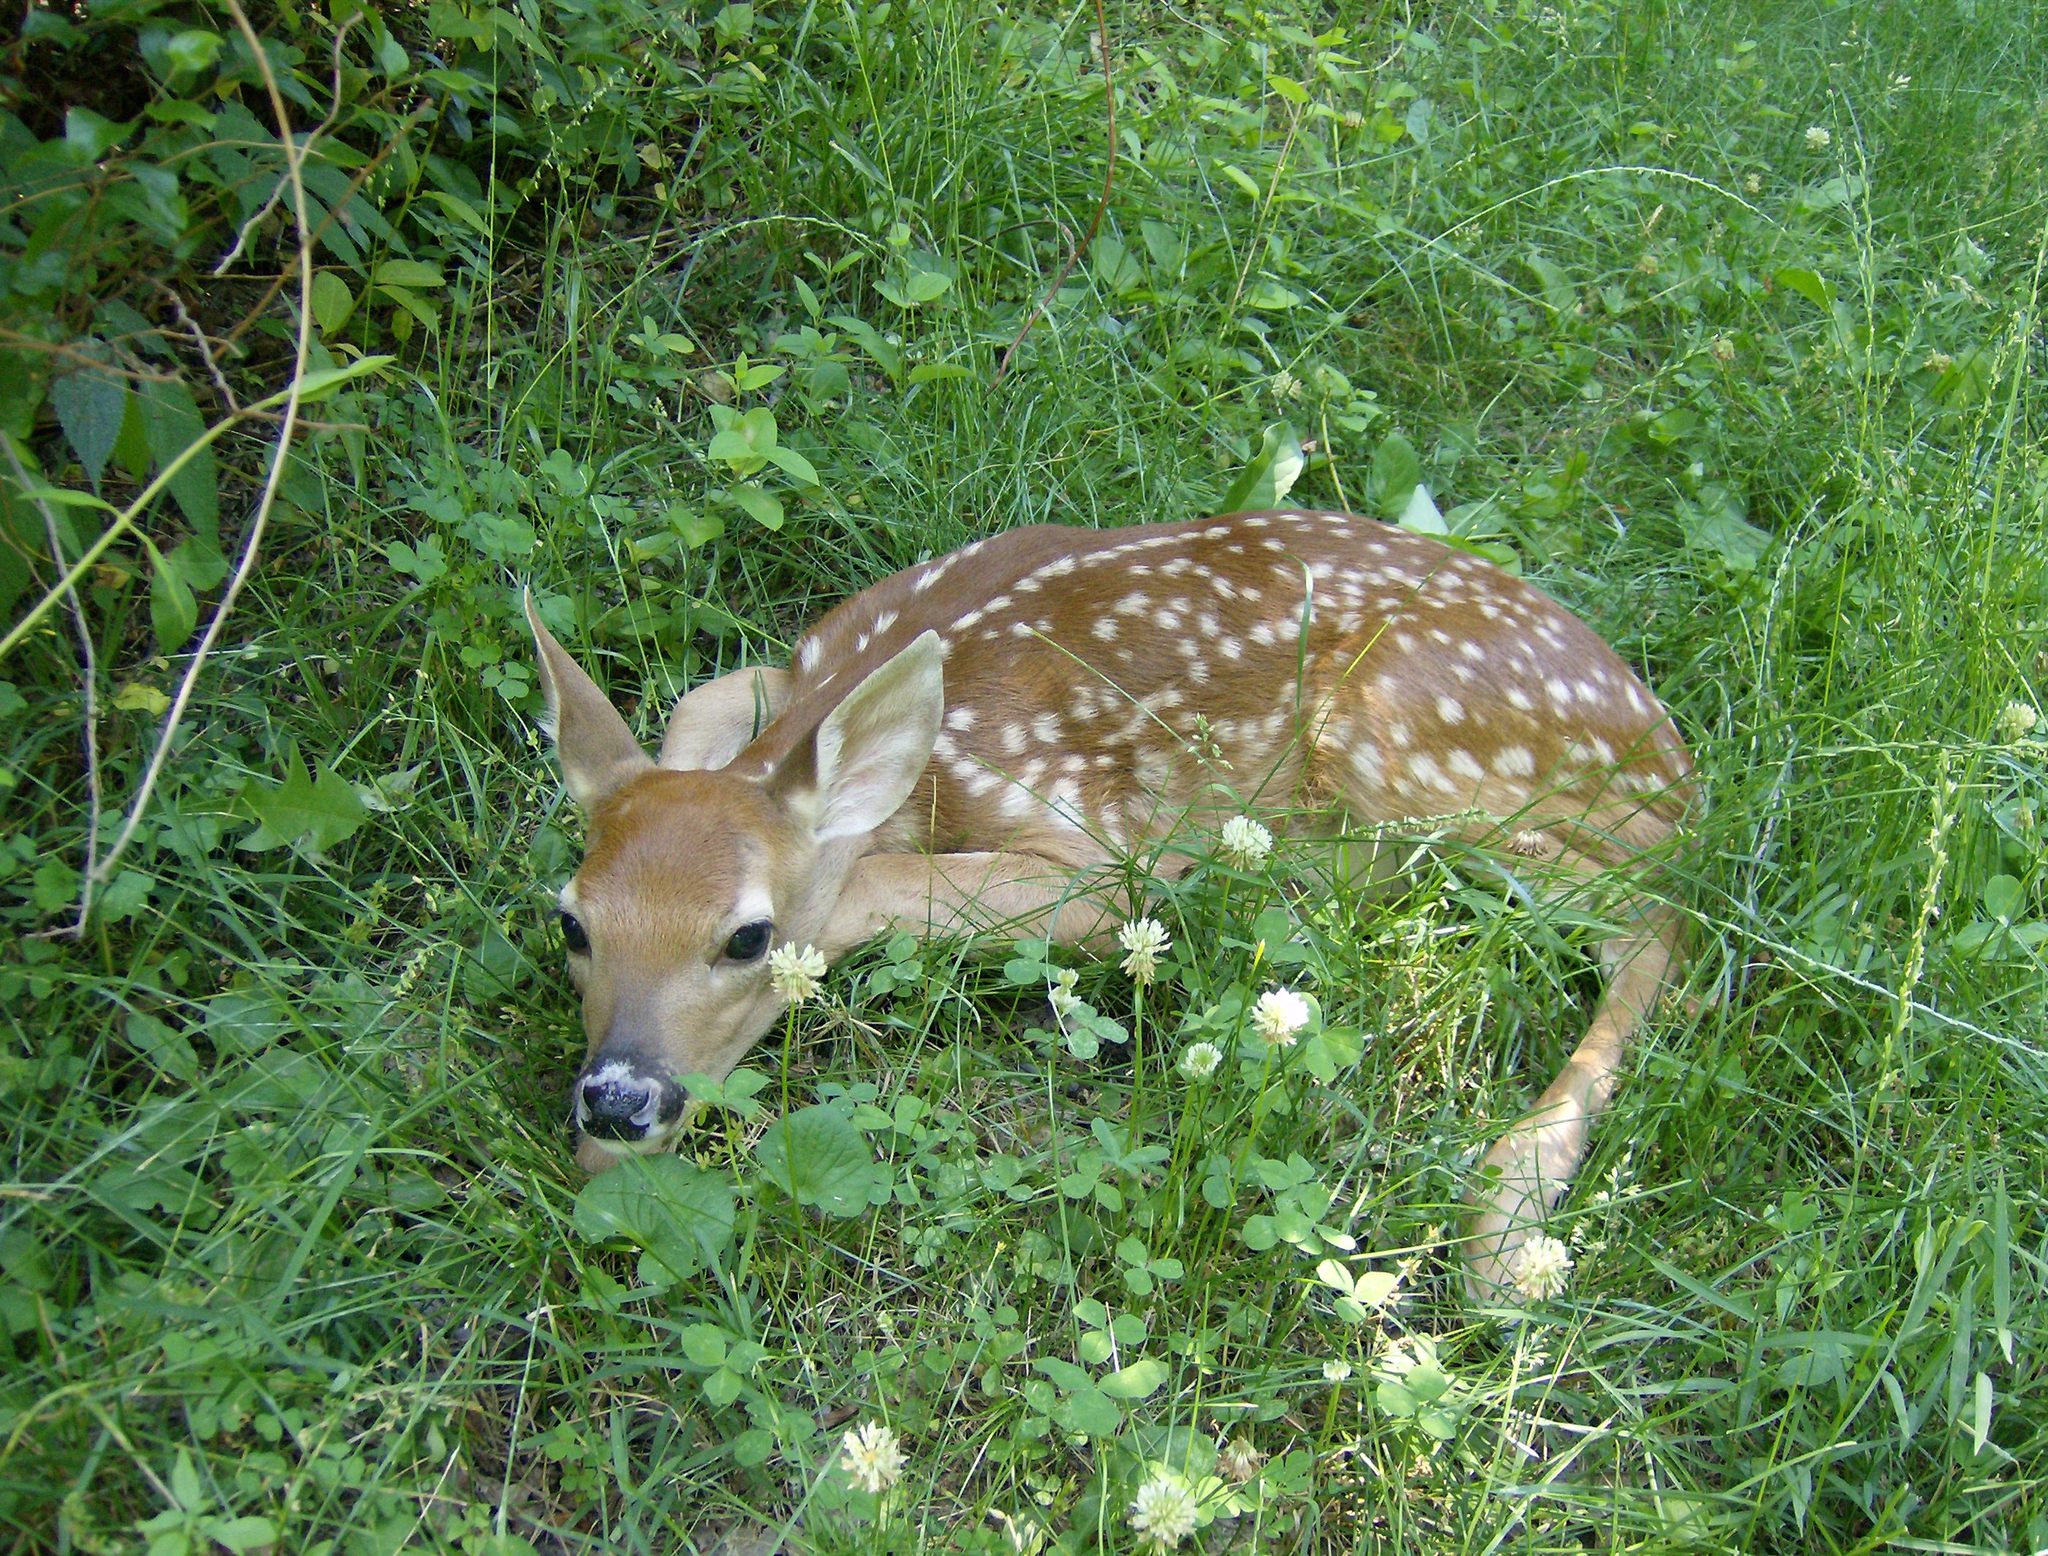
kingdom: Animalia
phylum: Chordata
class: Mammalia
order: Artiodactyla
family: Cervidae
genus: Odocoileus
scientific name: Odocoileus virginianus
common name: White-tailed deer
